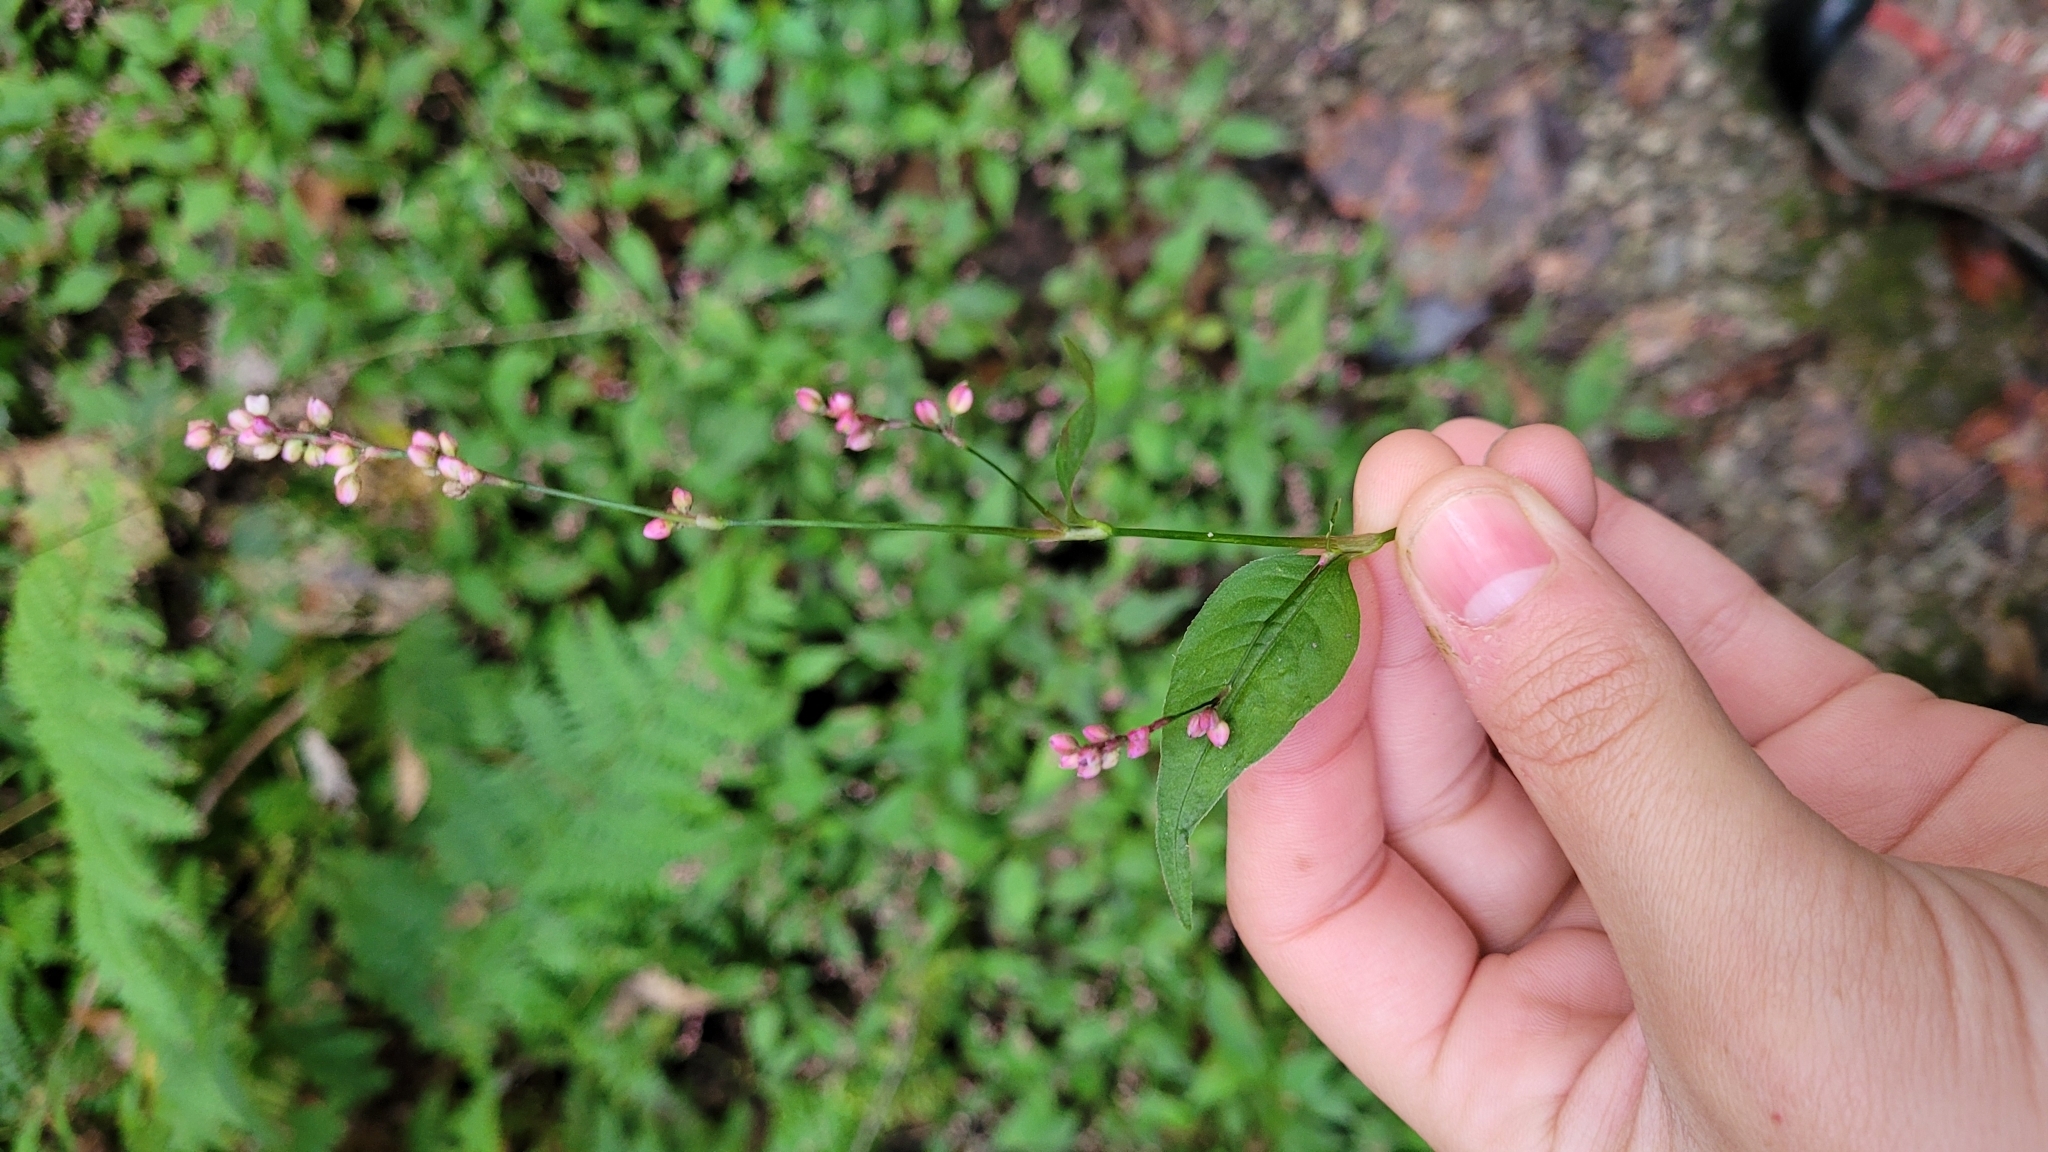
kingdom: Plantae
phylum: Tracheophyta
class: Magnoliopsida
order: Caryophyllales
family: Polygonaceae
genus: Persicaria
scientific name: Persicaria longiseta
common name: Bristly lady's-thumb
